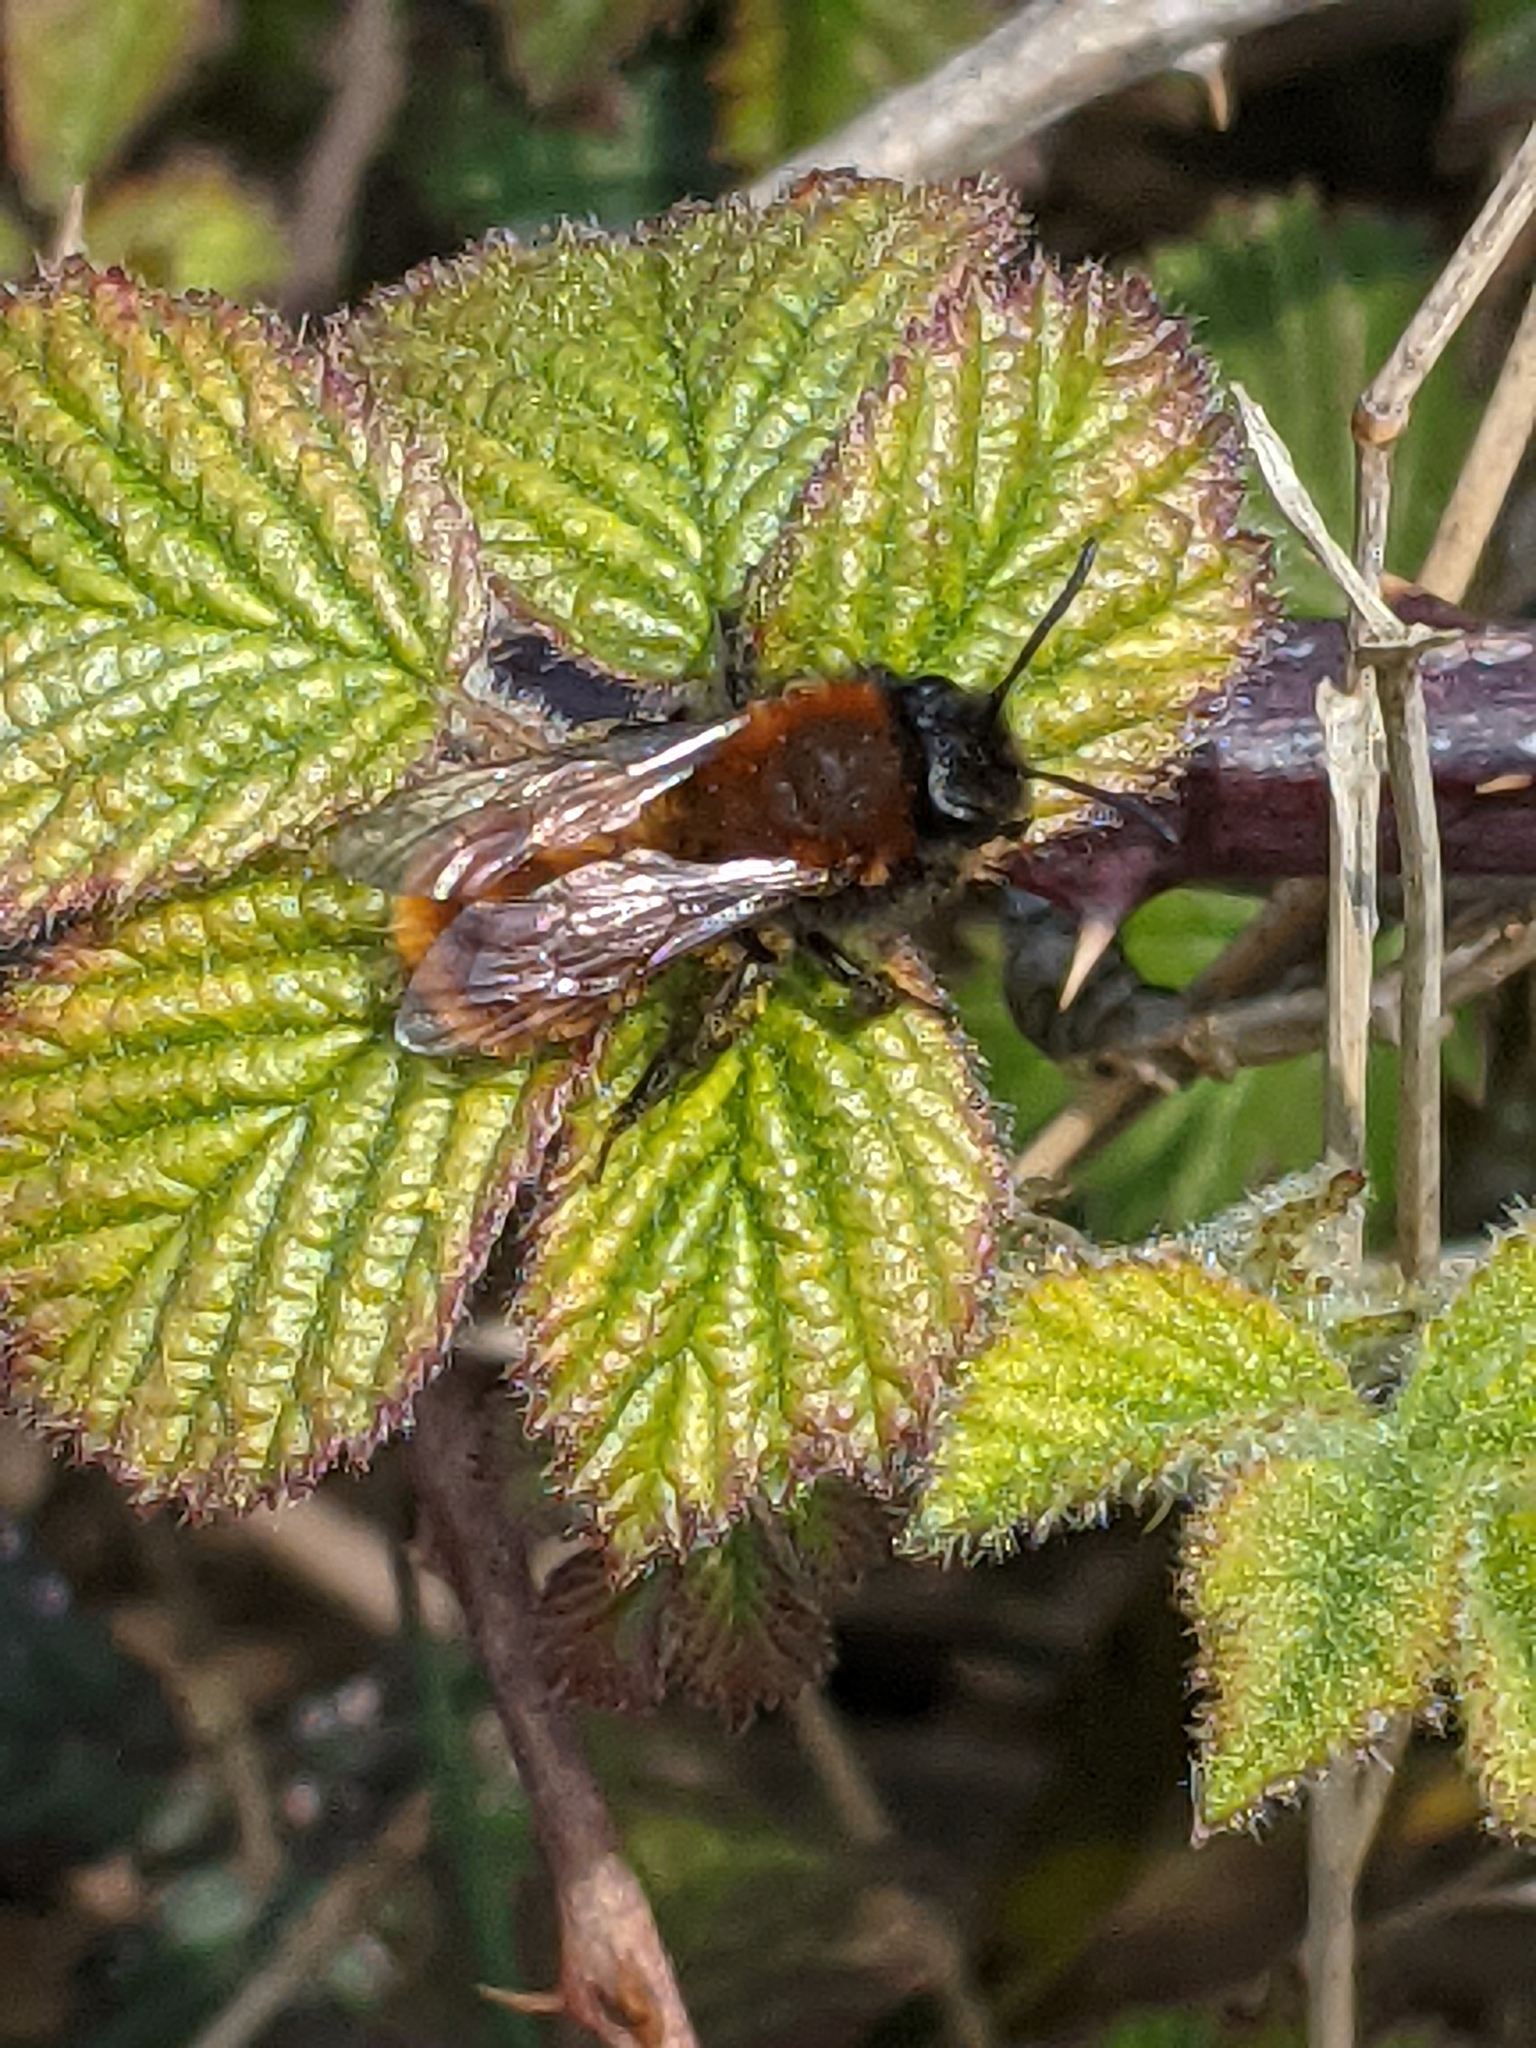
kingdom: Animalia
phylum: Arthropoda
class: Insecta
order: Hymenoptera
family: Andrenidae
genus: Andrena
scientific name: Andrena fulva
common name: Tawny mining bee
